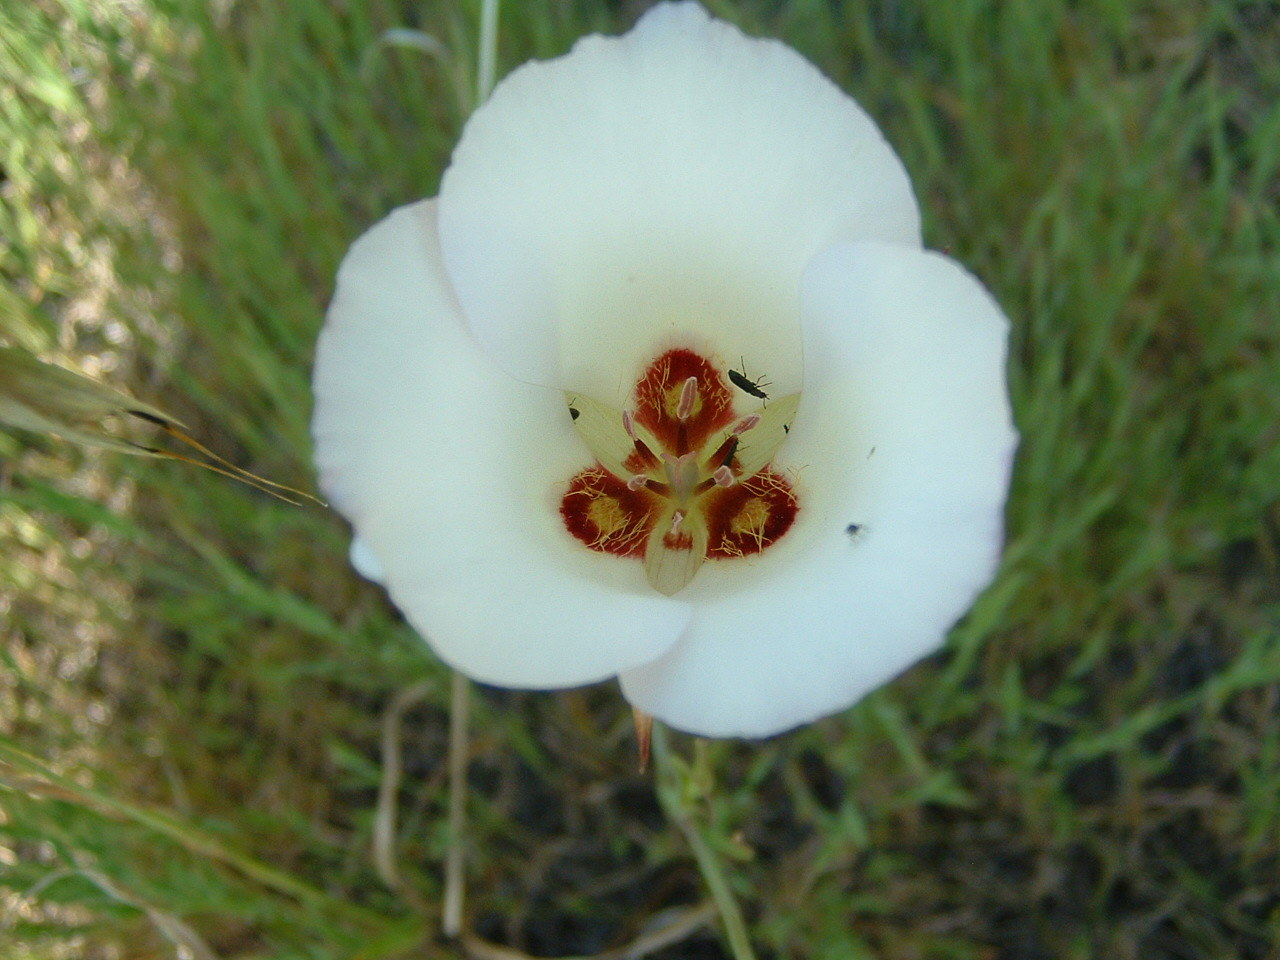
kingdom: Plantae
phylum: Tracheophyta
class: Liliopsida
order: Liliales
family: Liliaceae
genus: Calochortus
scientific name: Calochortus catalinae
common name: Catalina mariposa-lily
